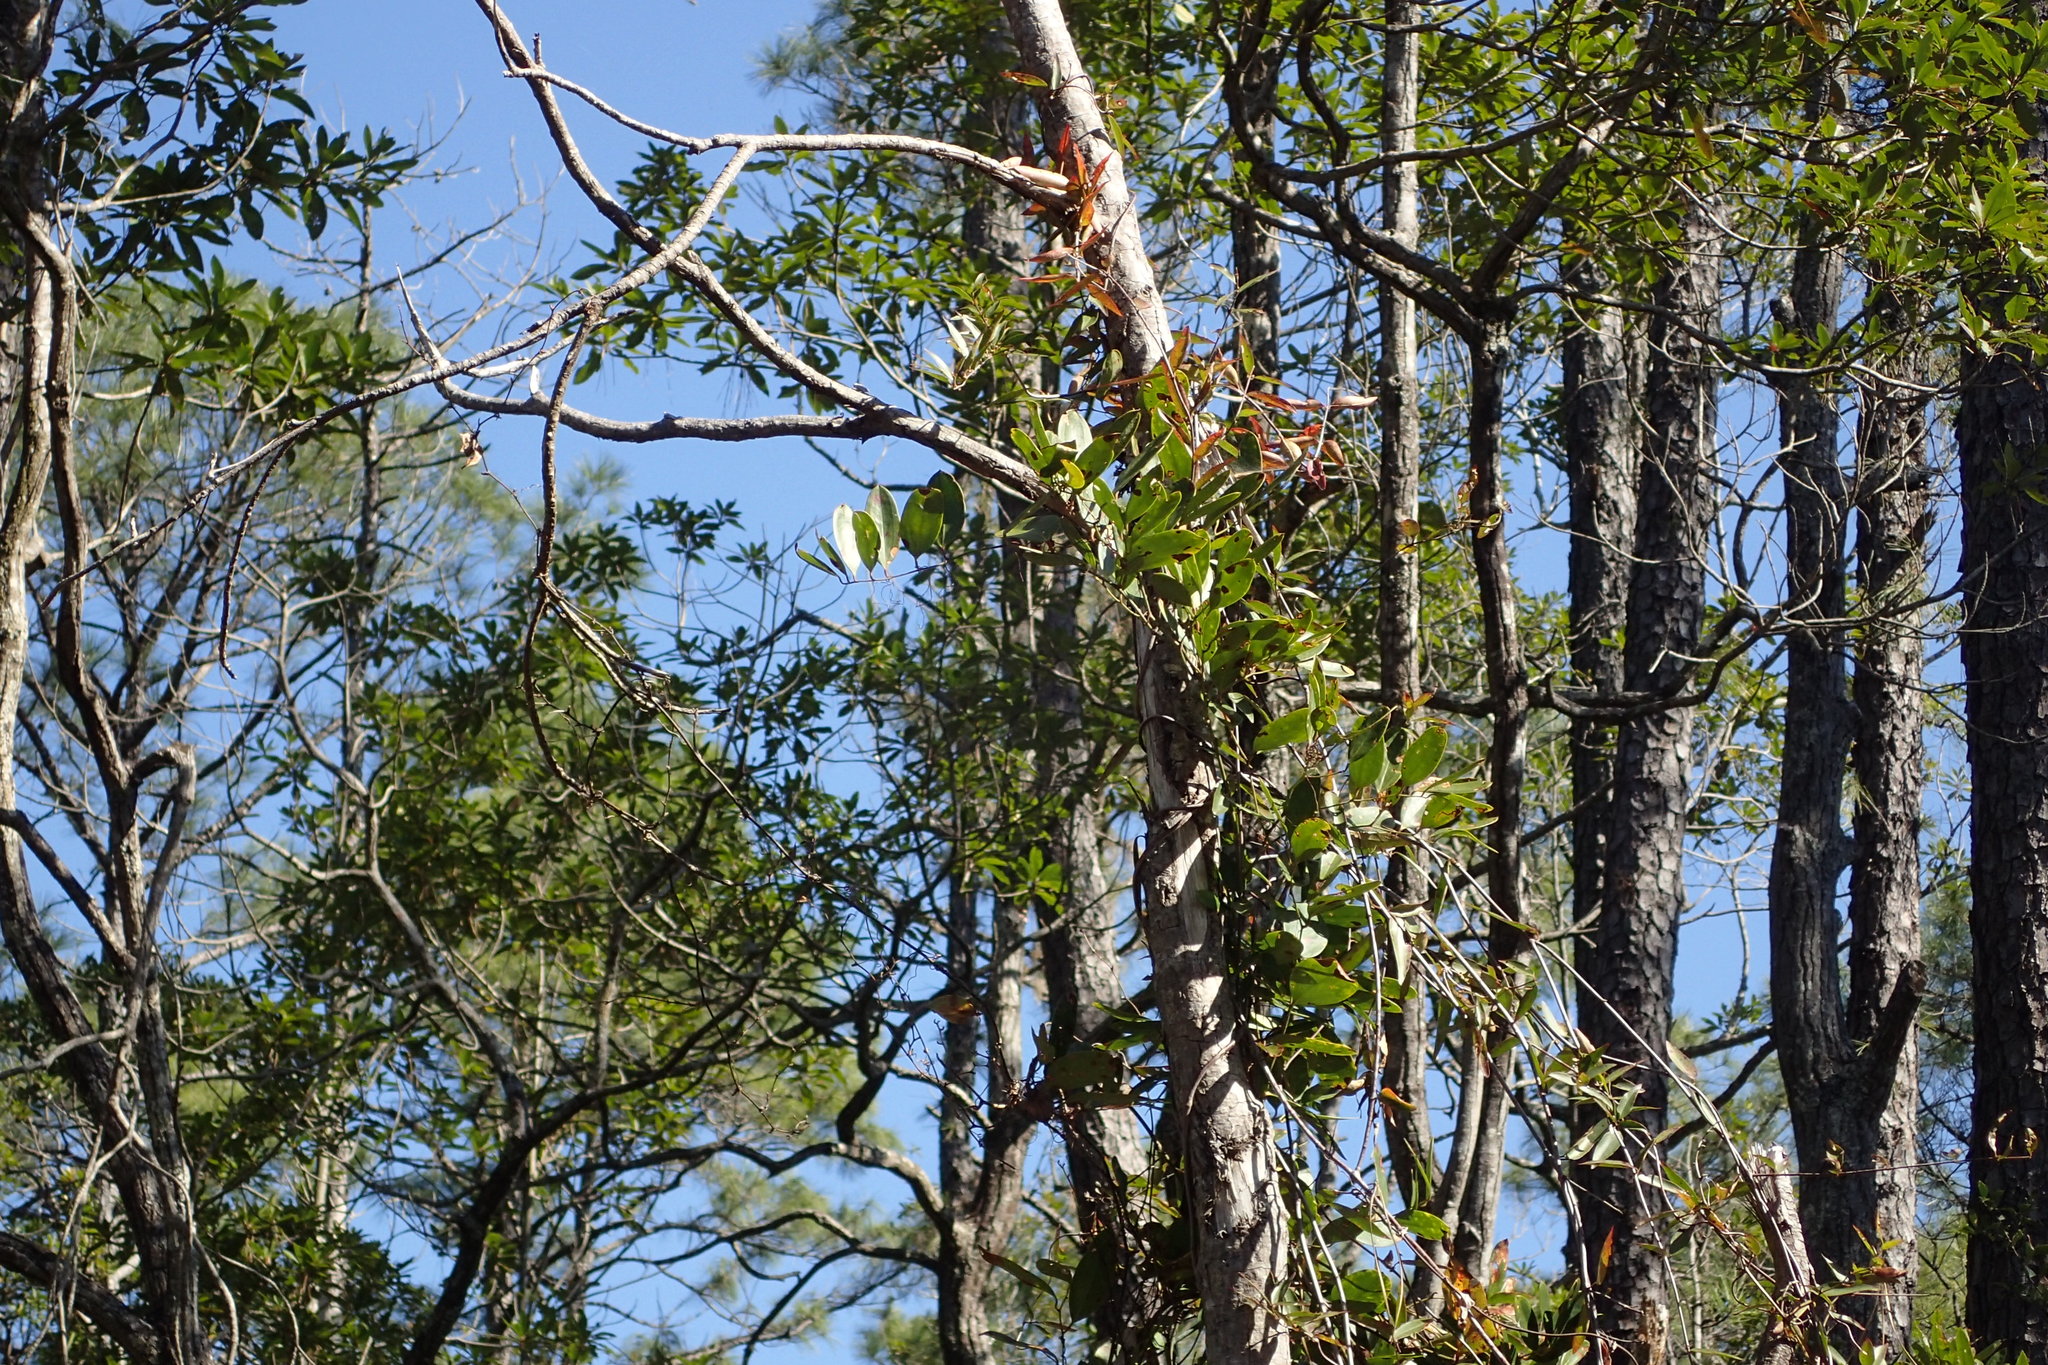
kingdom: Plantae
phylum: Tracheophyta
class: Liliopsida
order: Liliales
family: Smilacaceae
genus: Smilax
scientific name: Smilax laurifolia
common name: Bamboovine
